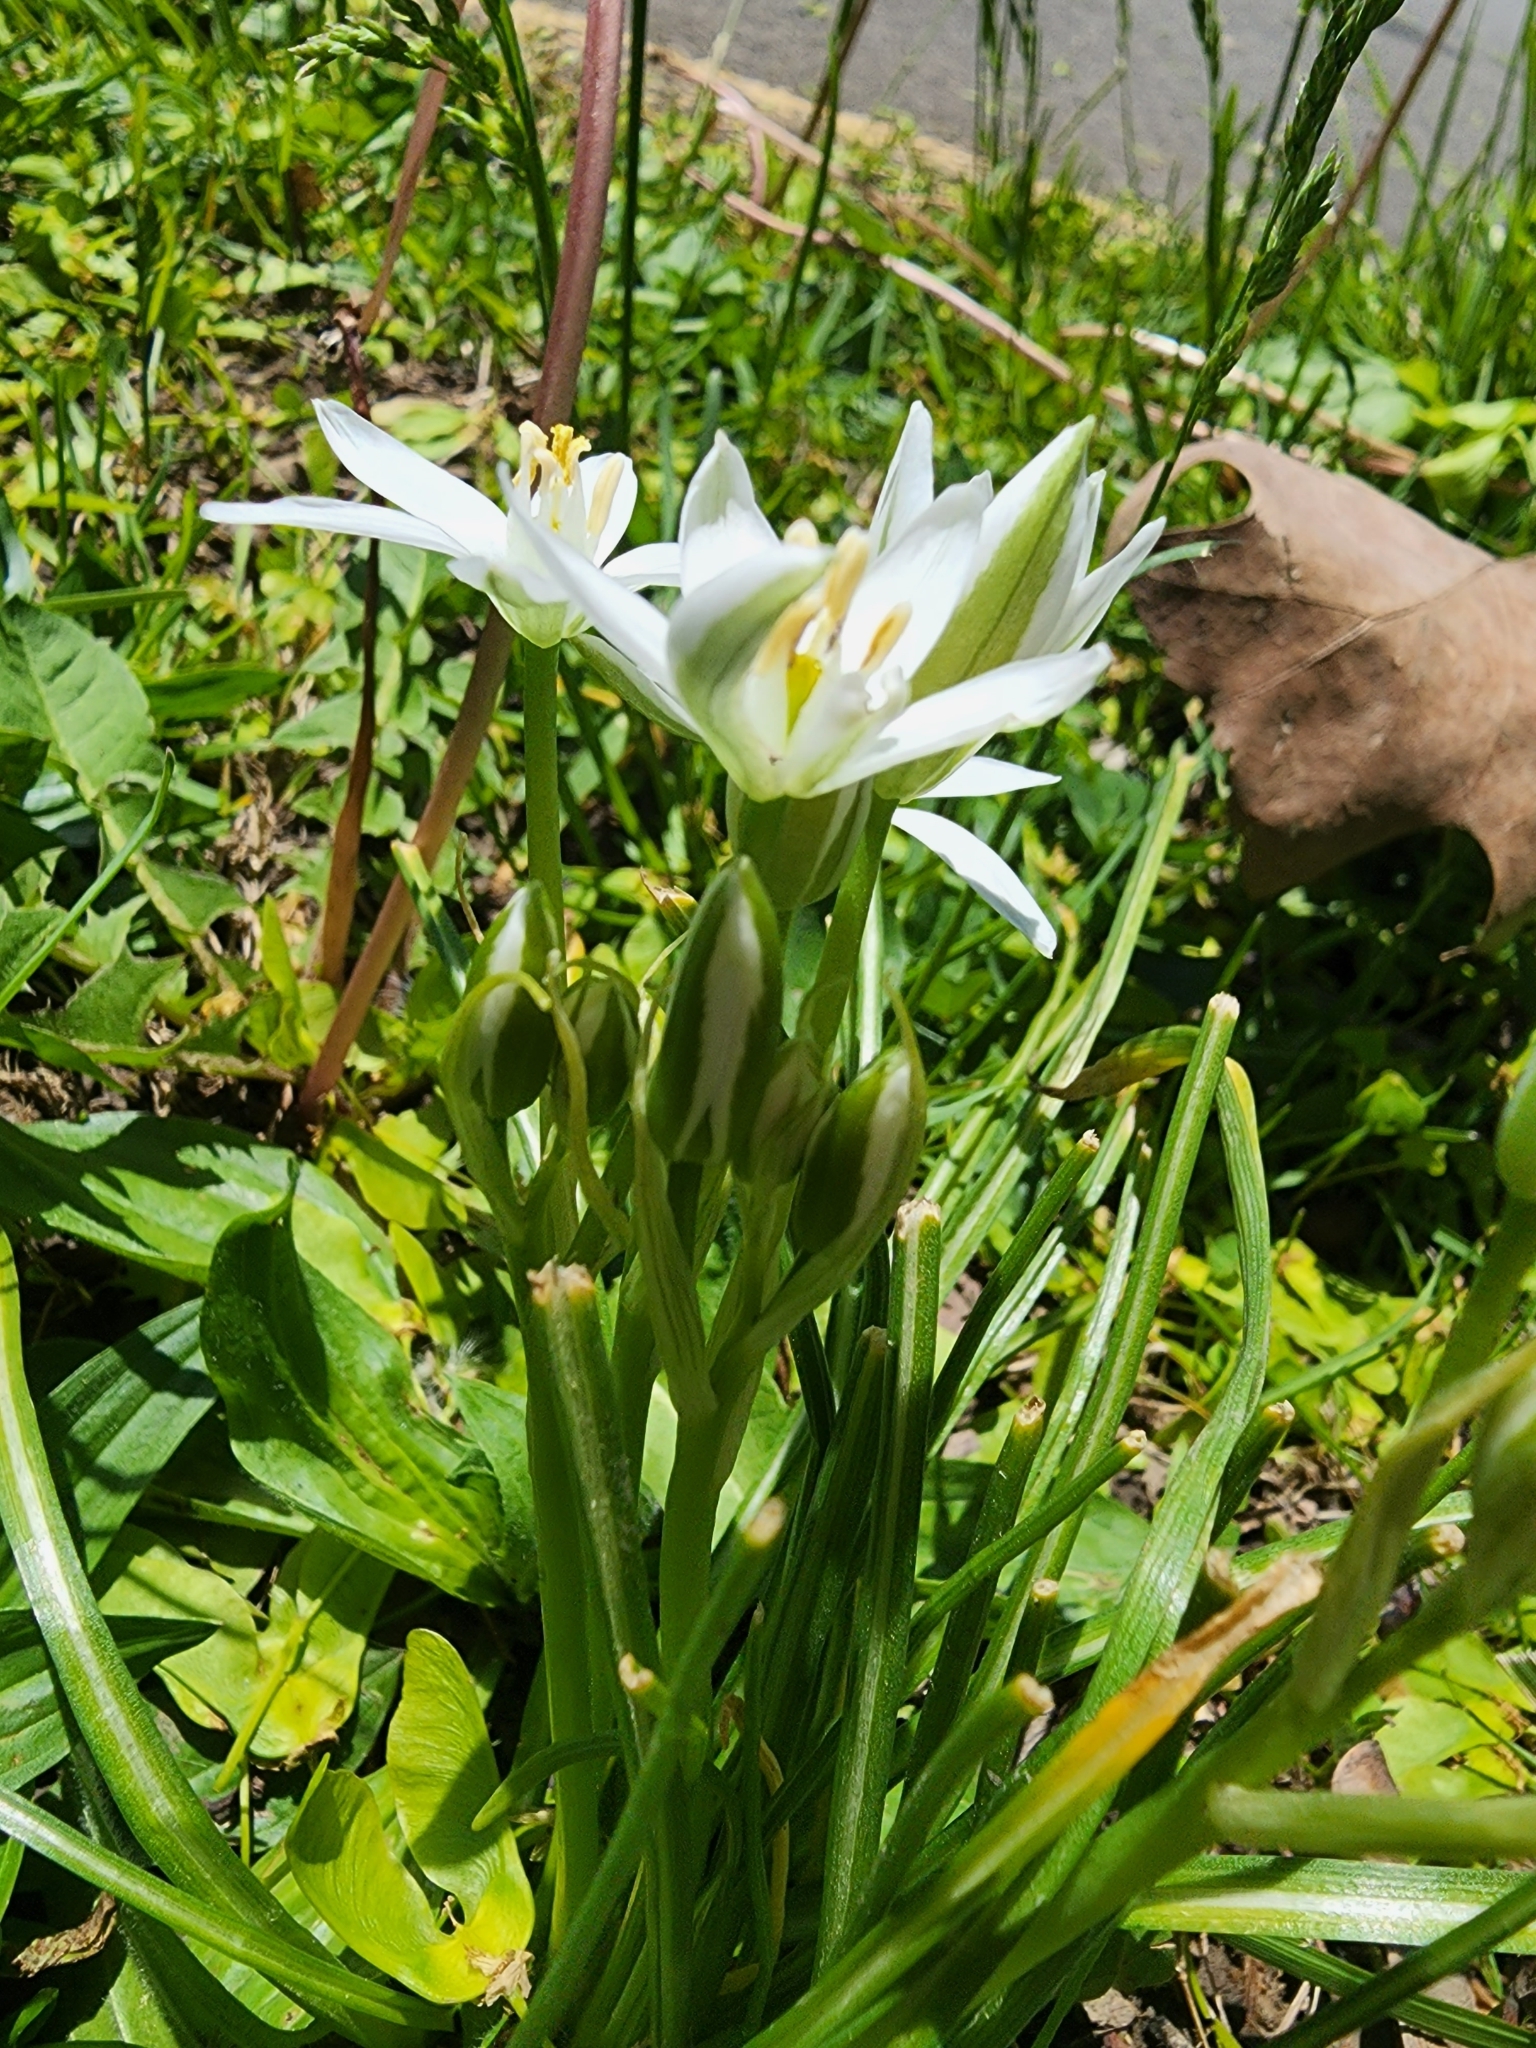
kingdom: Plantae
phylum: Tracheophyta
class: Liliopsida
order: Asparagales
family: Asparagaceae
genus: Ornithogalum
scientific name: Ornithogalum umbellatum
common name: Garden star-of-bethlehem
